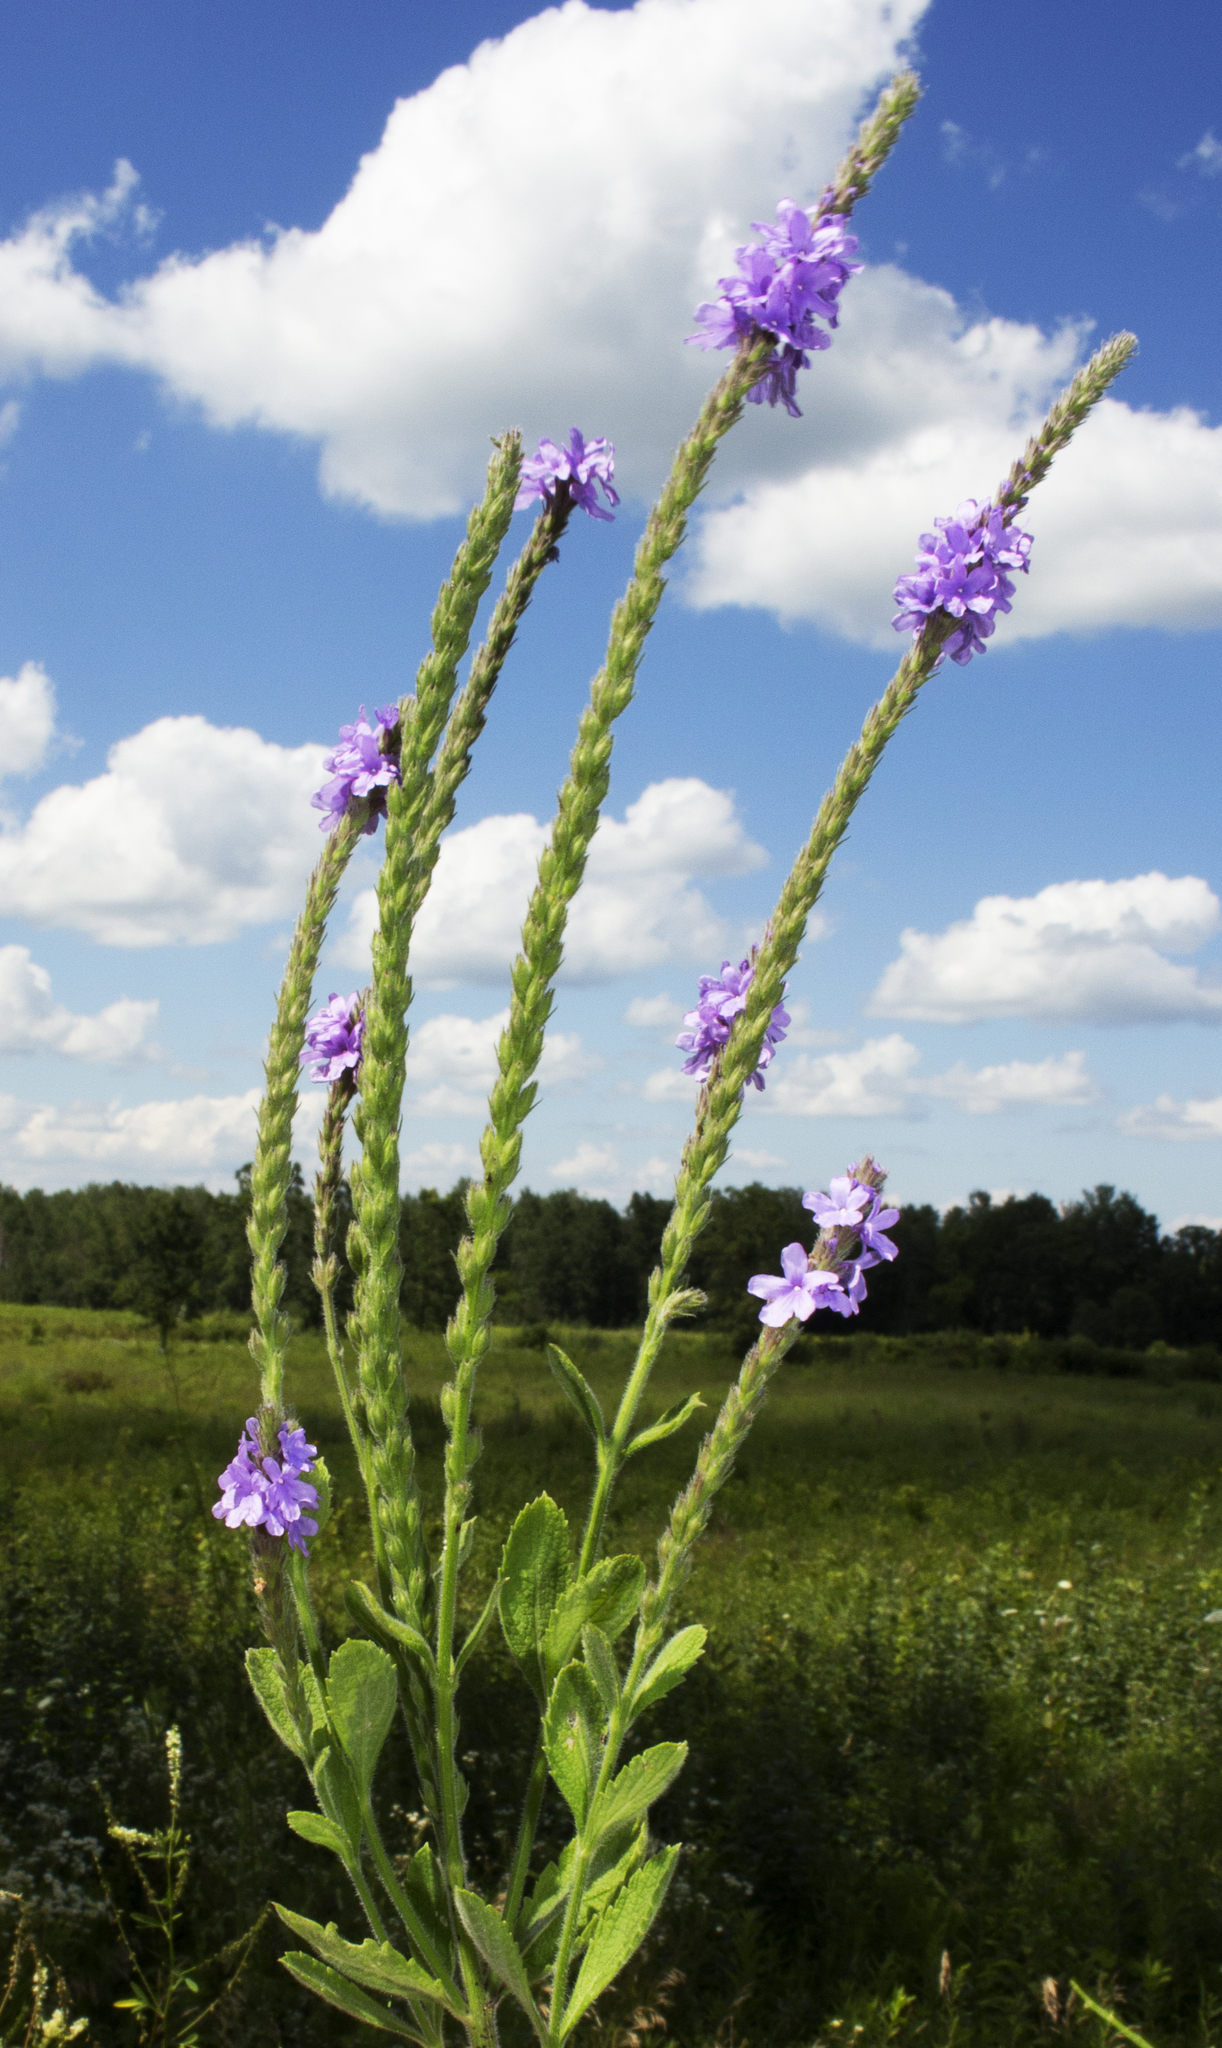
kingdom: Plantae
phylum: Tracheophyta
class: Magnoliopsida
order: Lamiales
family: Verbenaceae
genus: Verbena
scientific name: Verbena stricta
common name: Hoary vervain
